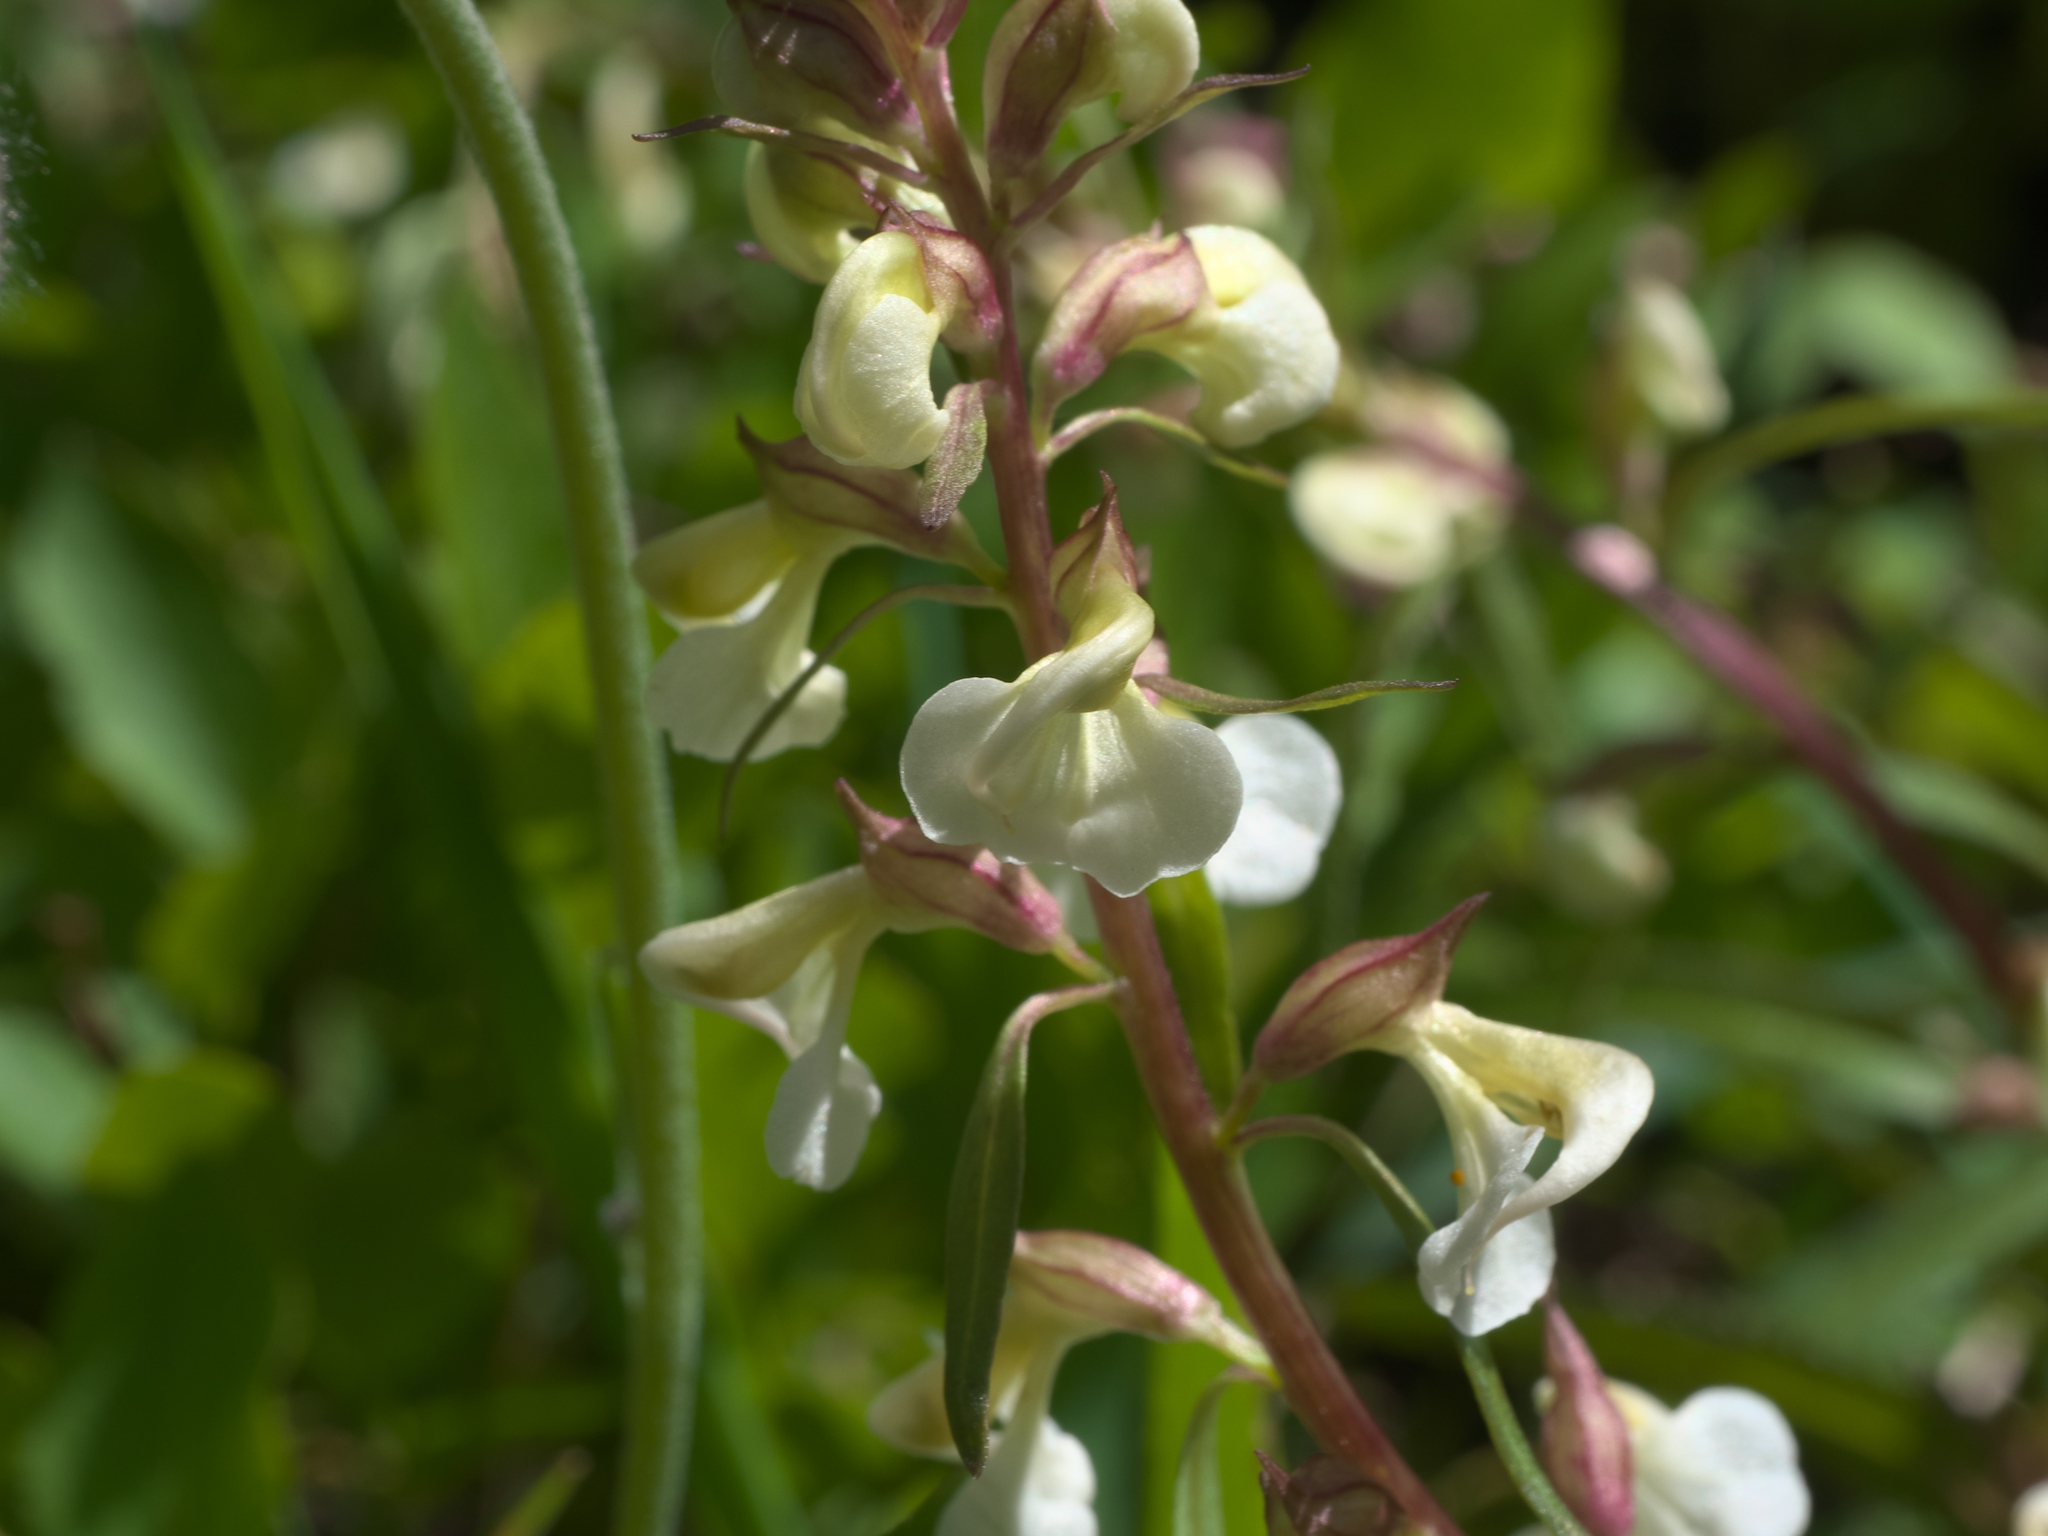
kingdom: Plantae
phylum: Tracheophyta
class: Magnoliopsida
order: Lamiales
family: Orobanchaceae
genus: Pedicularis
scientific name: Pedicularis racemosa
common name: Leafy lousewort
